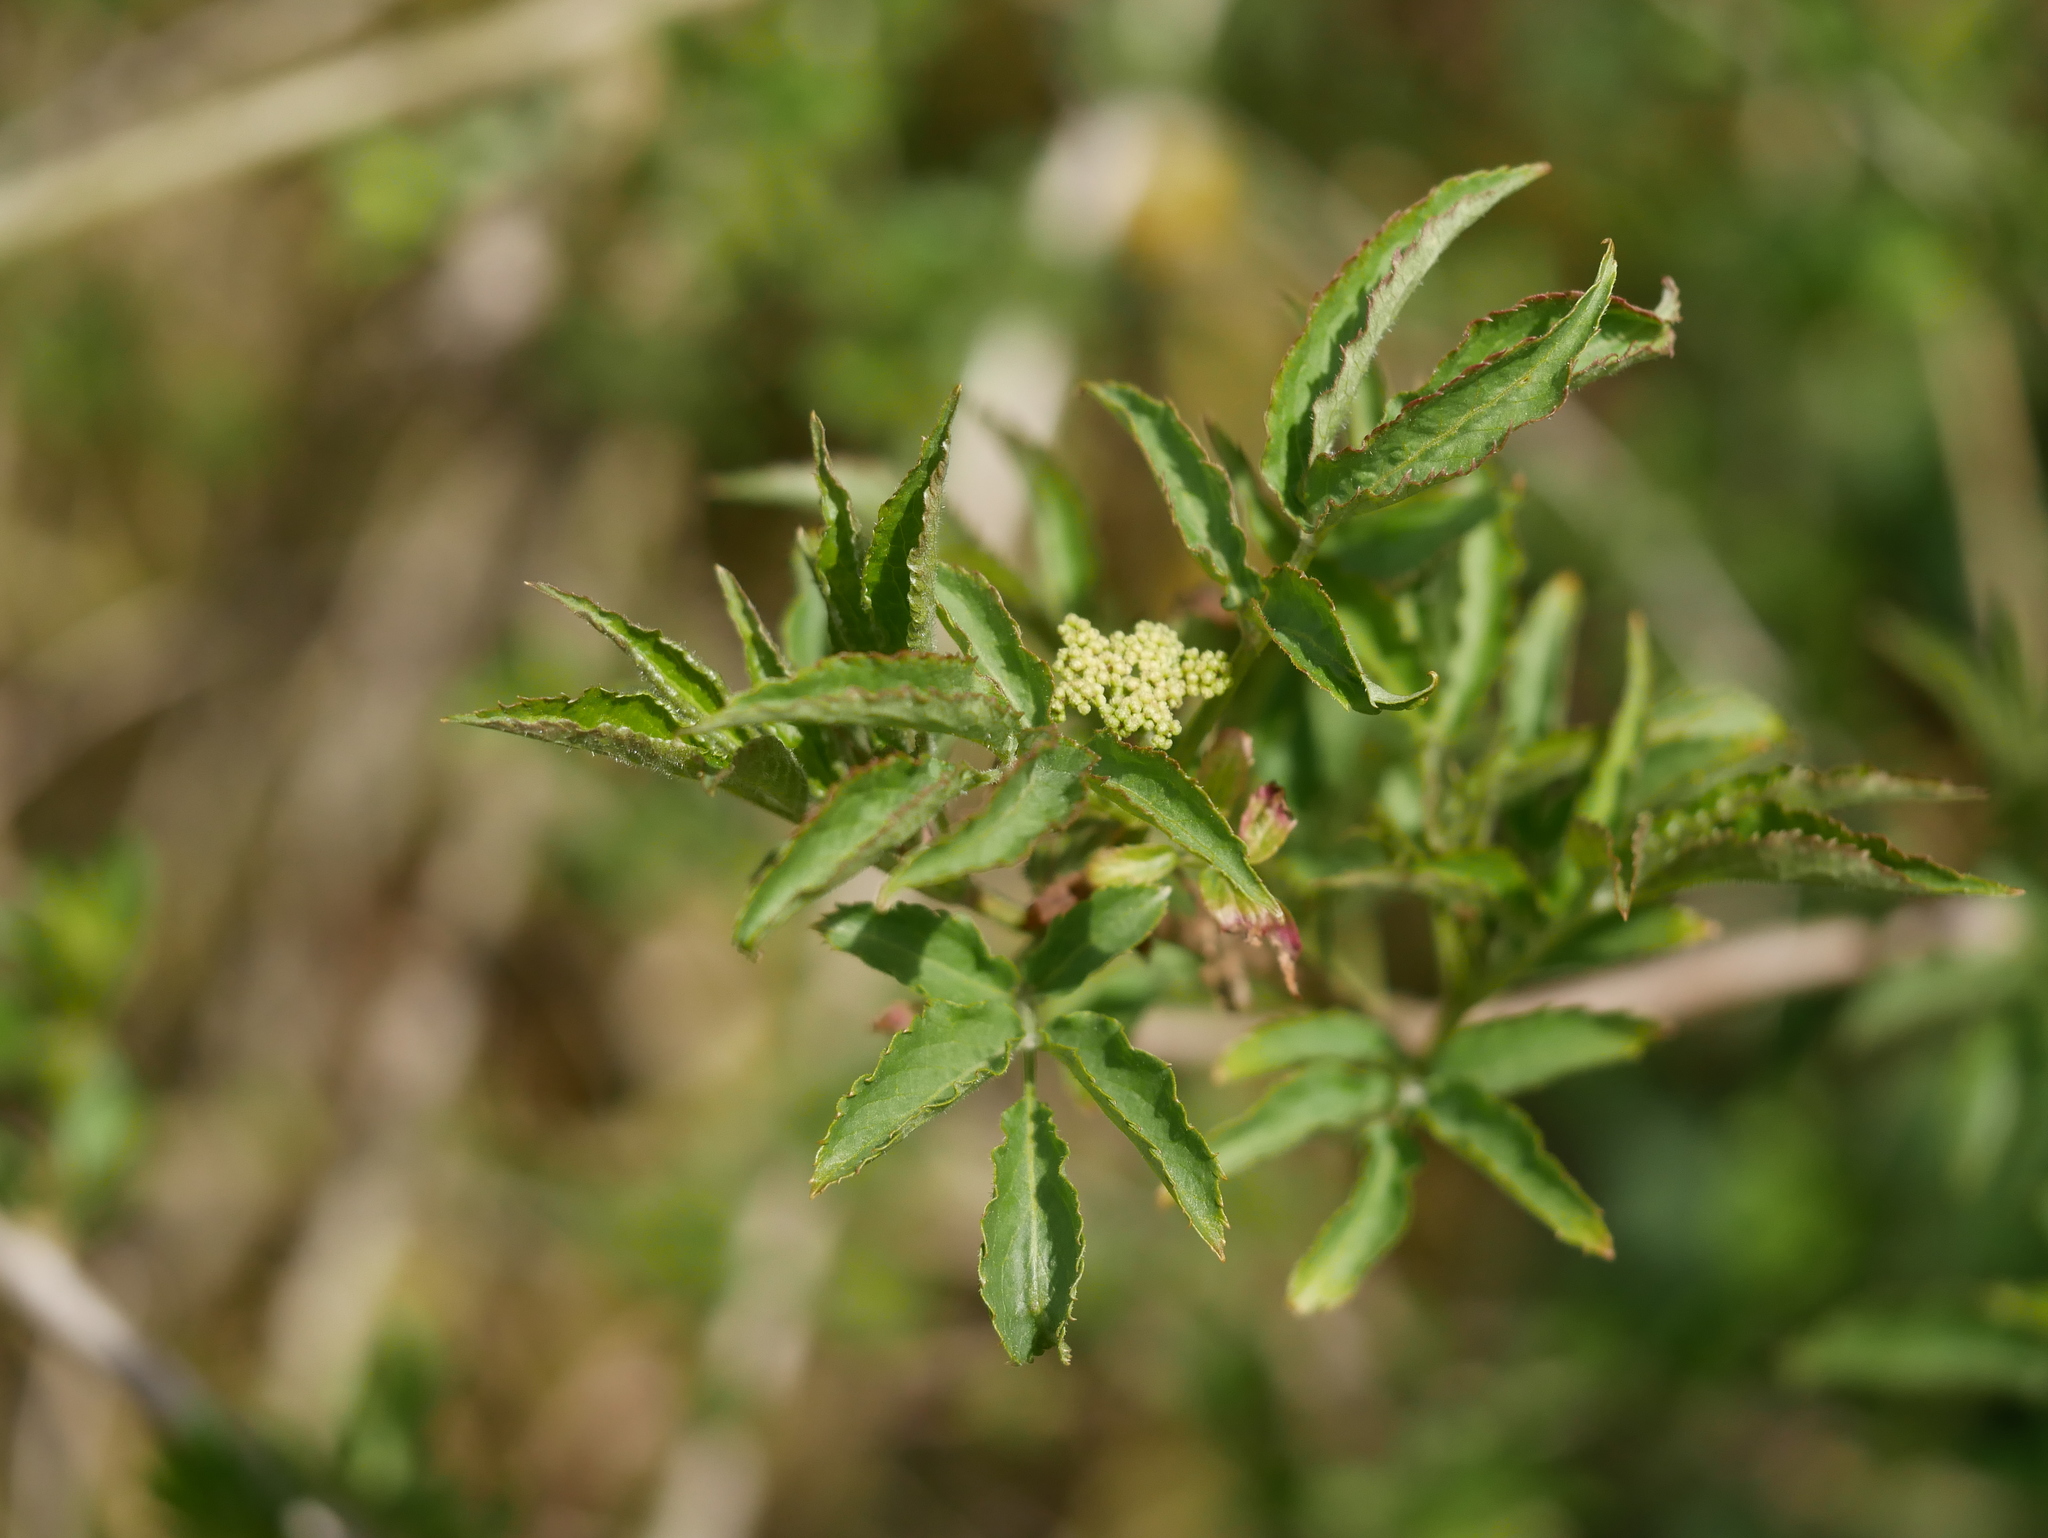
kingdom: Plantae
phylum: Tracheophyta
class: Magnoliopsida
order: Dipsacales
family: Viburnaceae
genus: Sambucus
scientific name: Sambucus nigra
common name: Elder
